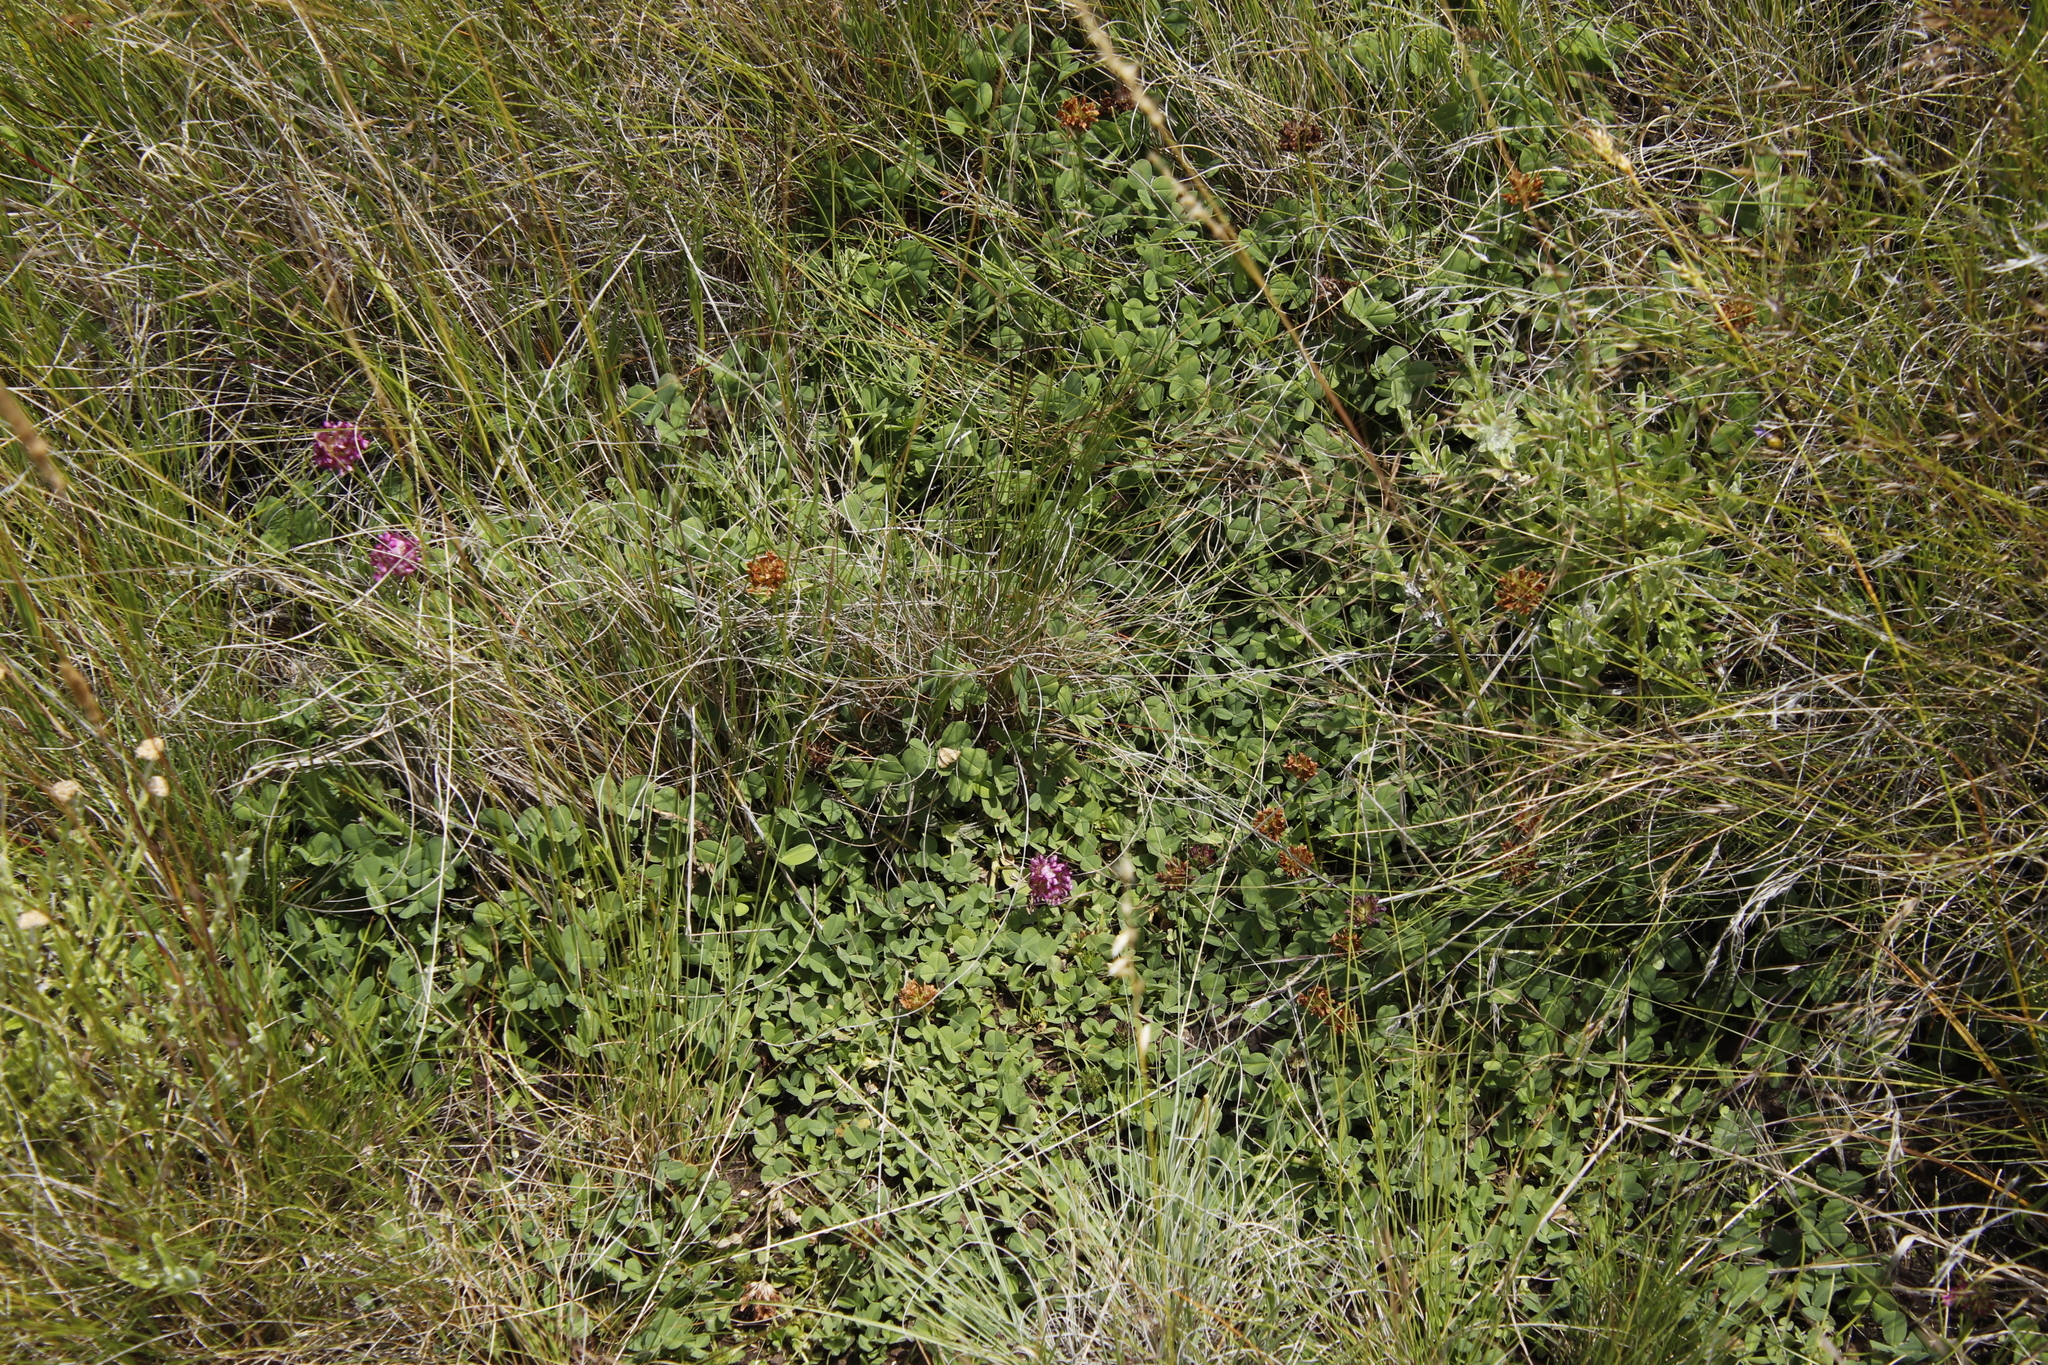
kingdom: Plantae
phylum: Tracheophyta
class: Magnoliopsida
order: Fabales
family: Fabaceae
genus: Trifolium
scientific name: Trifolium burchellianum
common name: Burchell's clover
